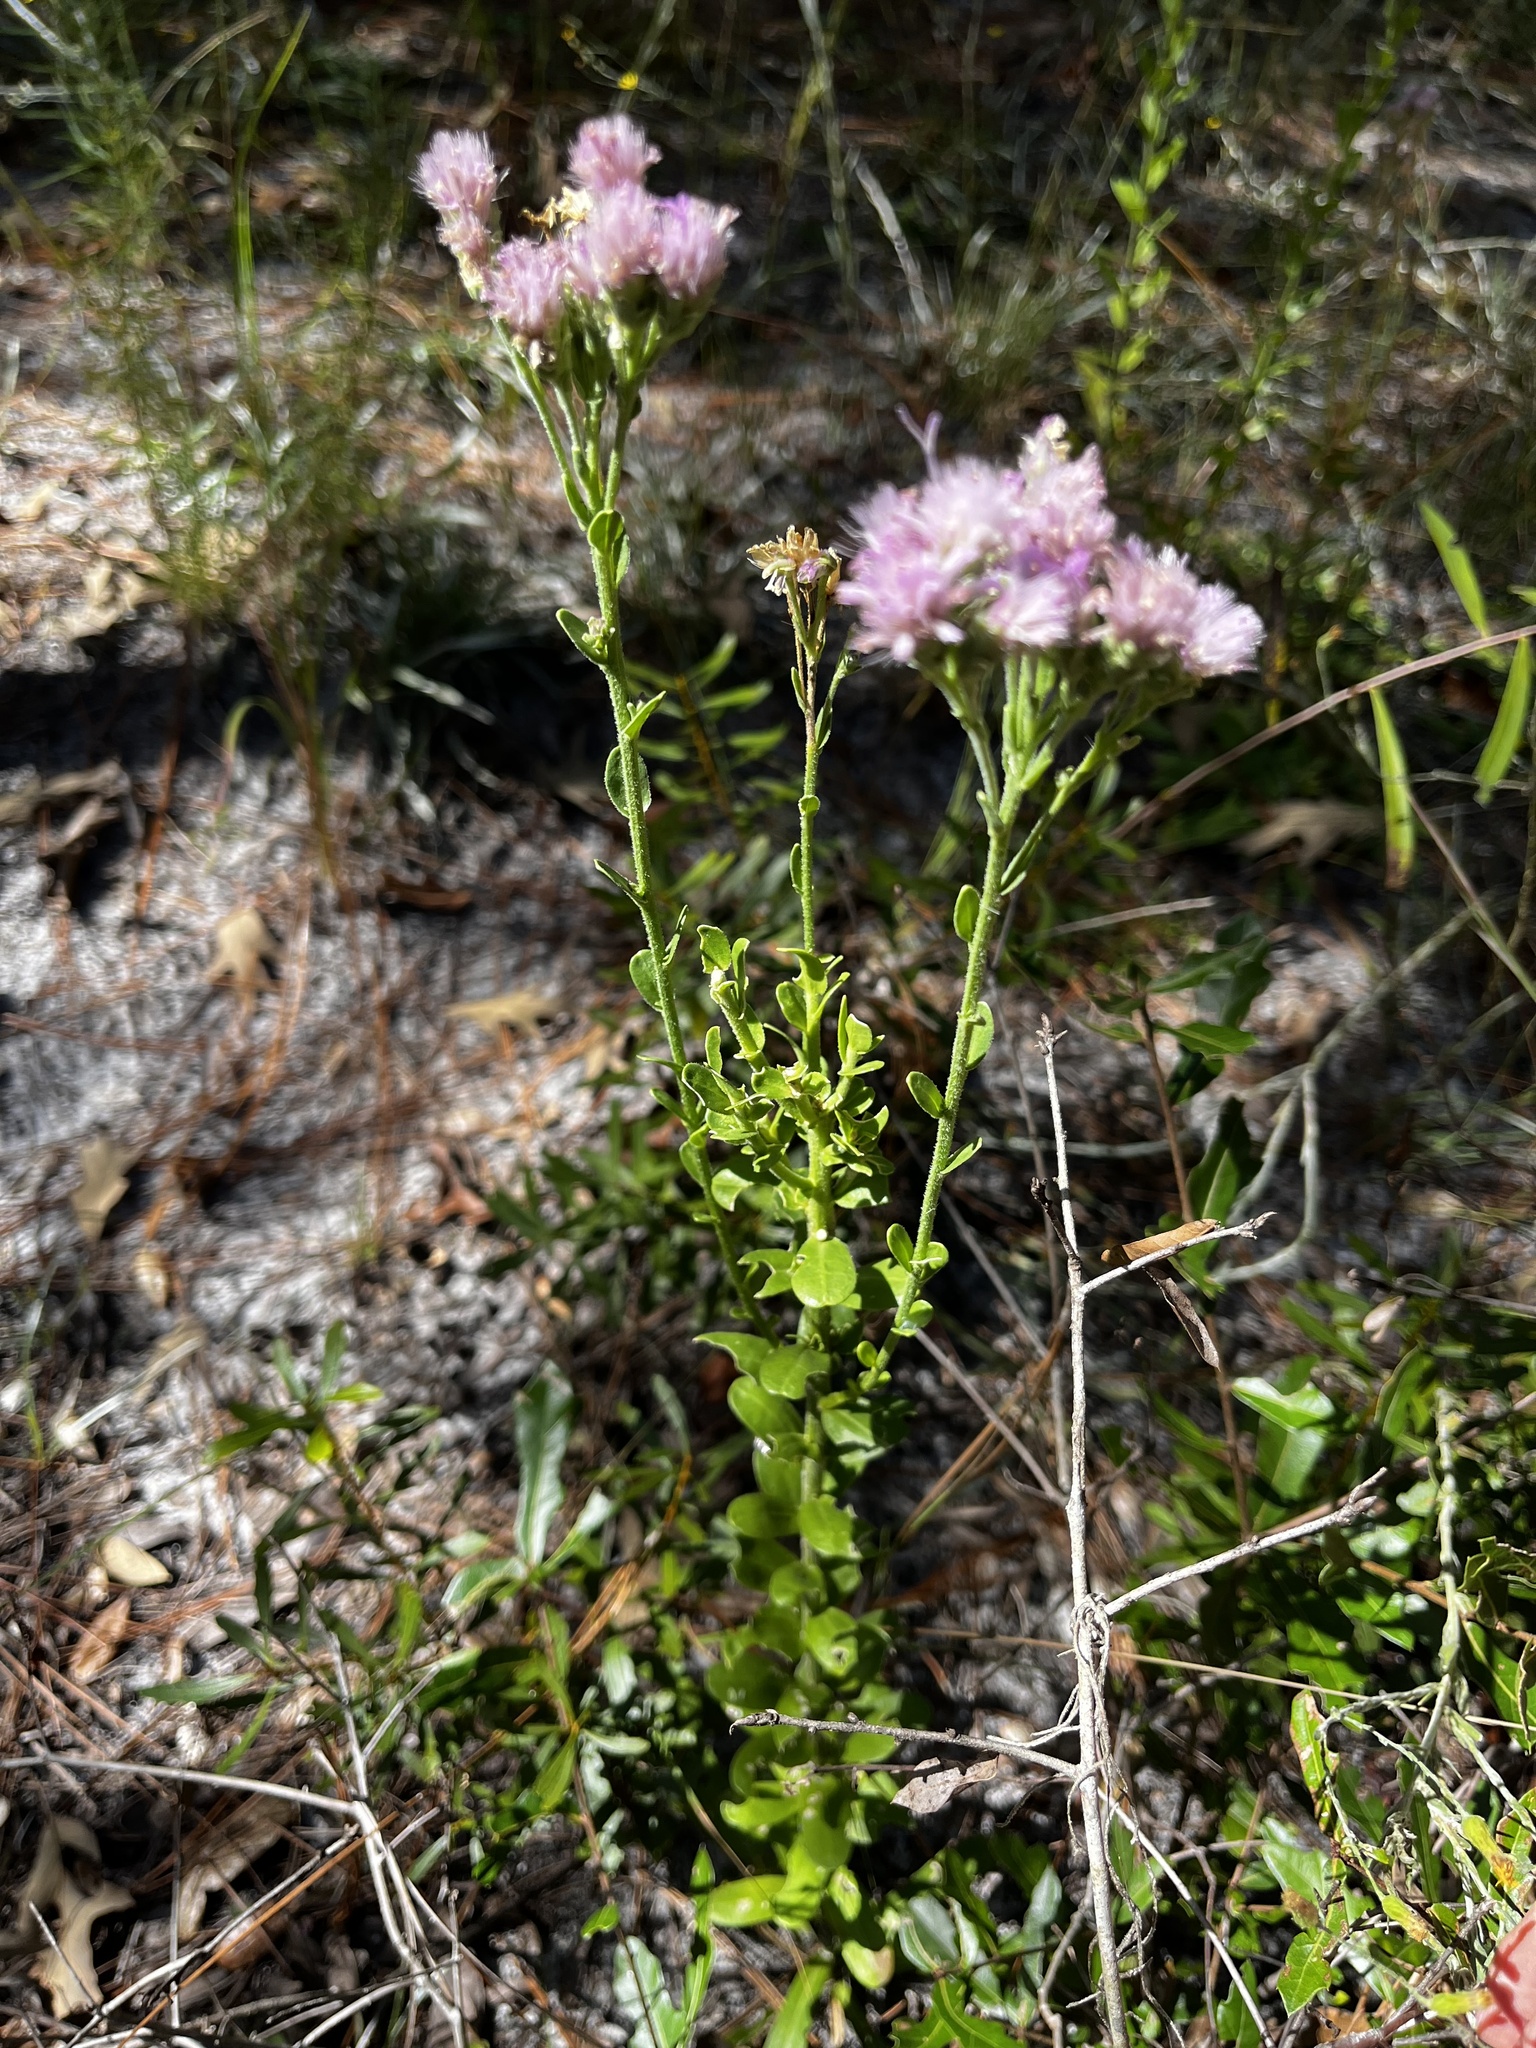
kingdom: Plantae
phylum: Tracheophyta
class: Magnoliopsida
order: Asterales
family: Asteraceae
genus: Carphephorus
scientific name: Carphephorus corymbosus
